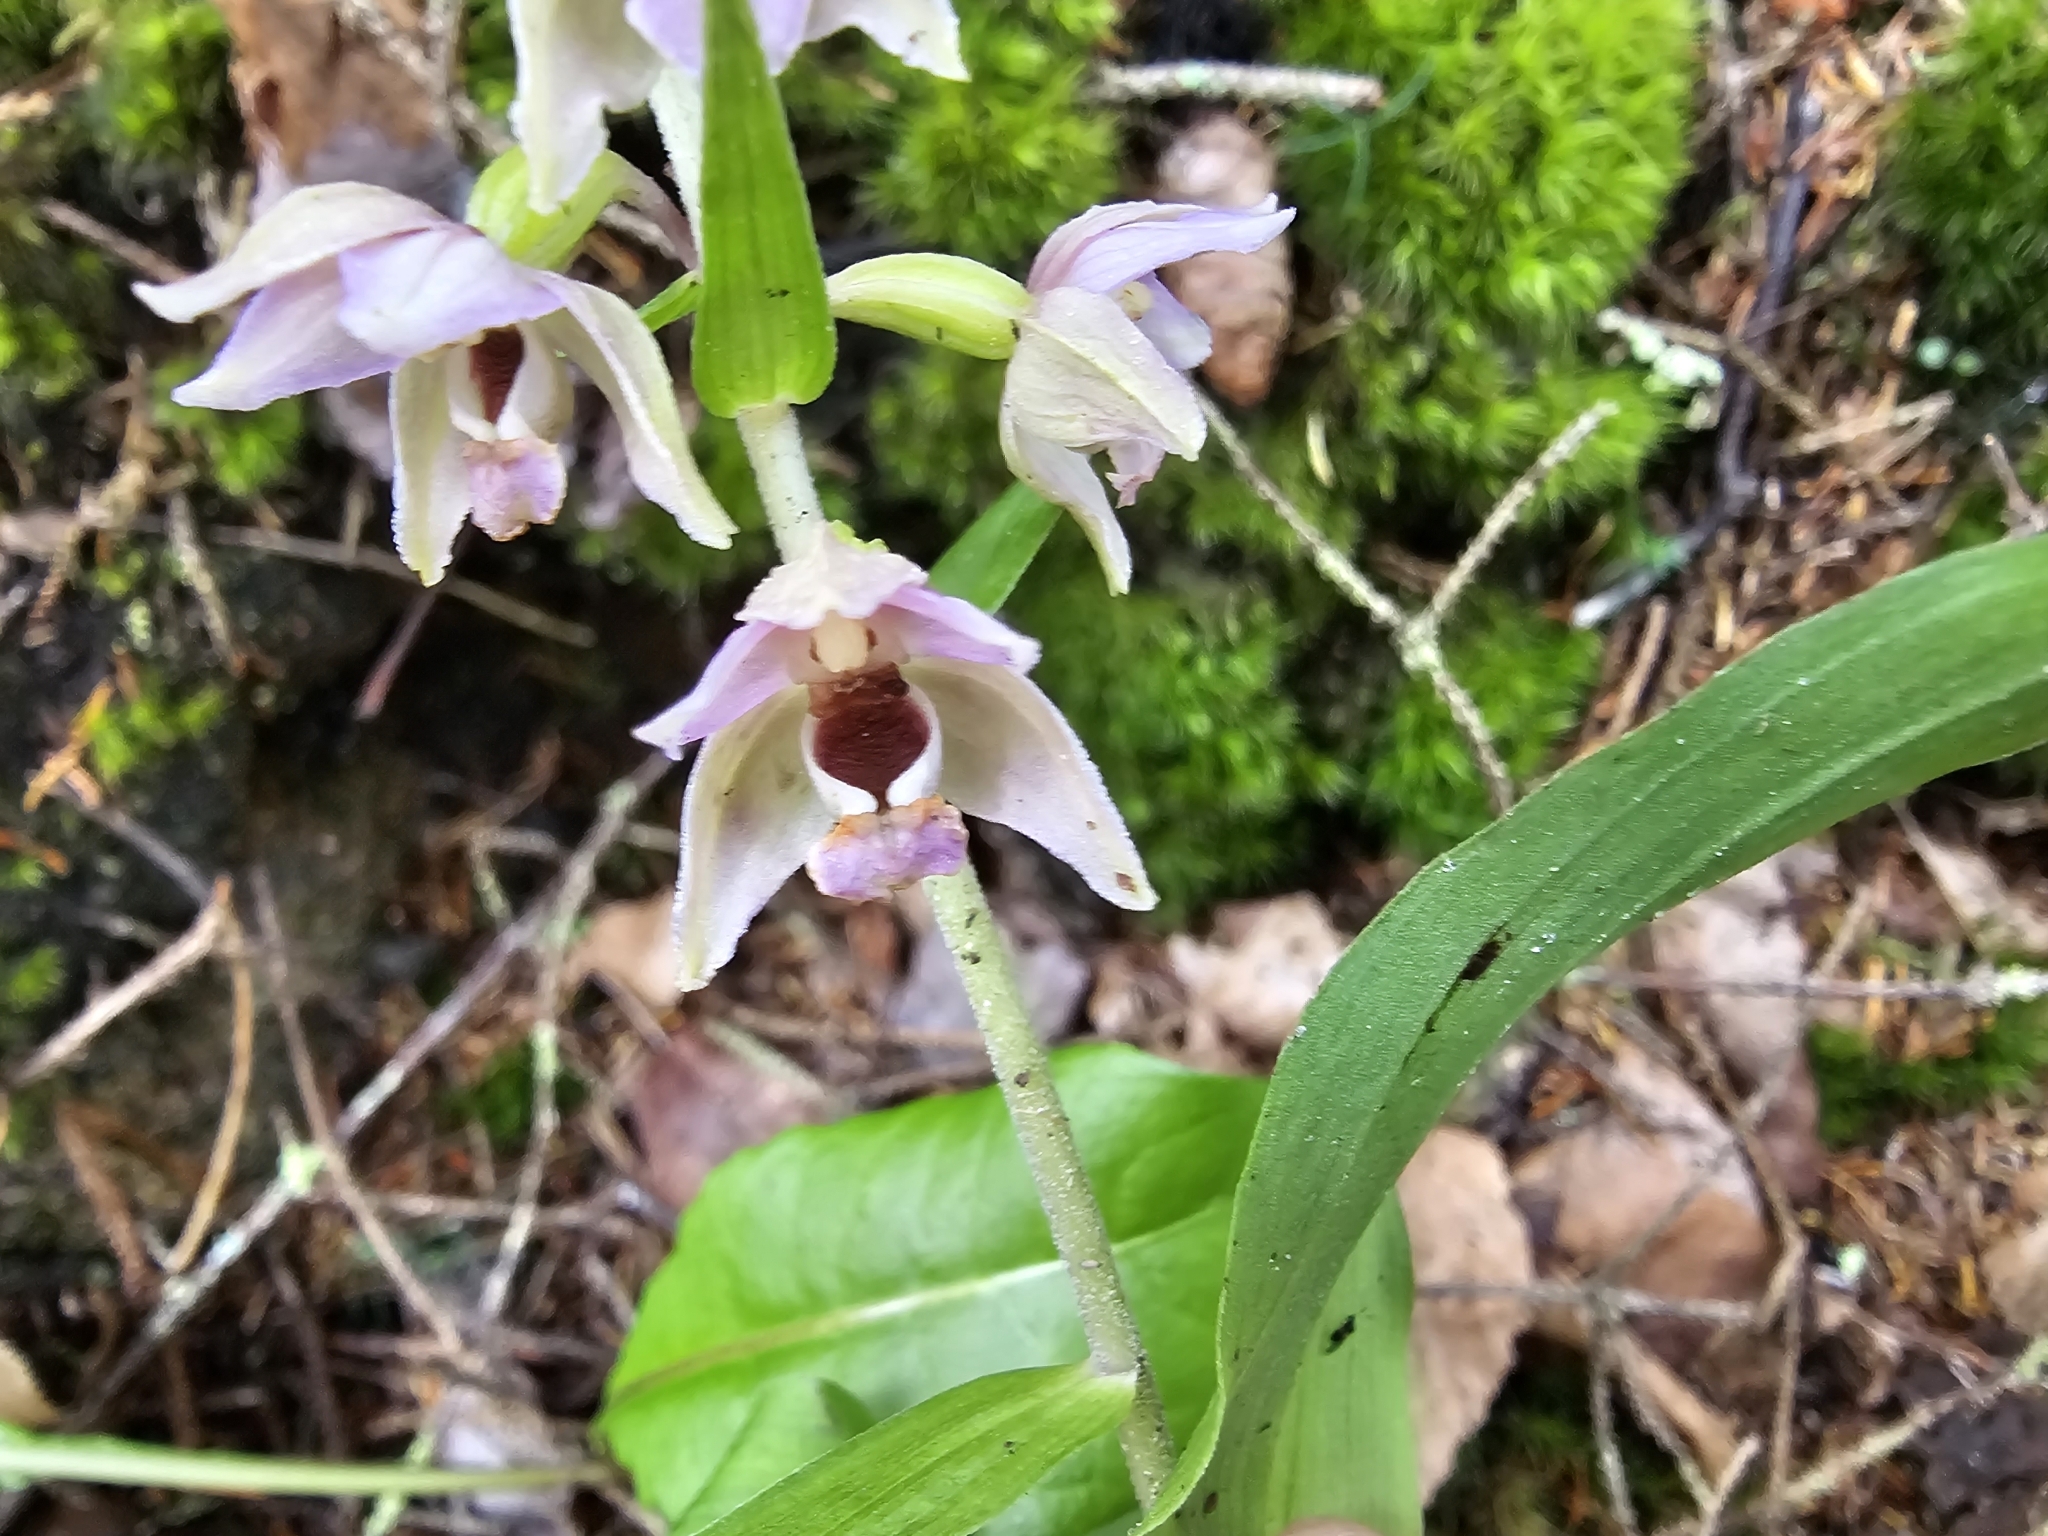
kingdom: Plantae
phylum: Tracheophyta
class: Liliopsida
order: Asparagales
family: Orchidaceae
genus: Epipactis
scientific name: Epipactis helleborine
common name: Broad-leaved helleborine
